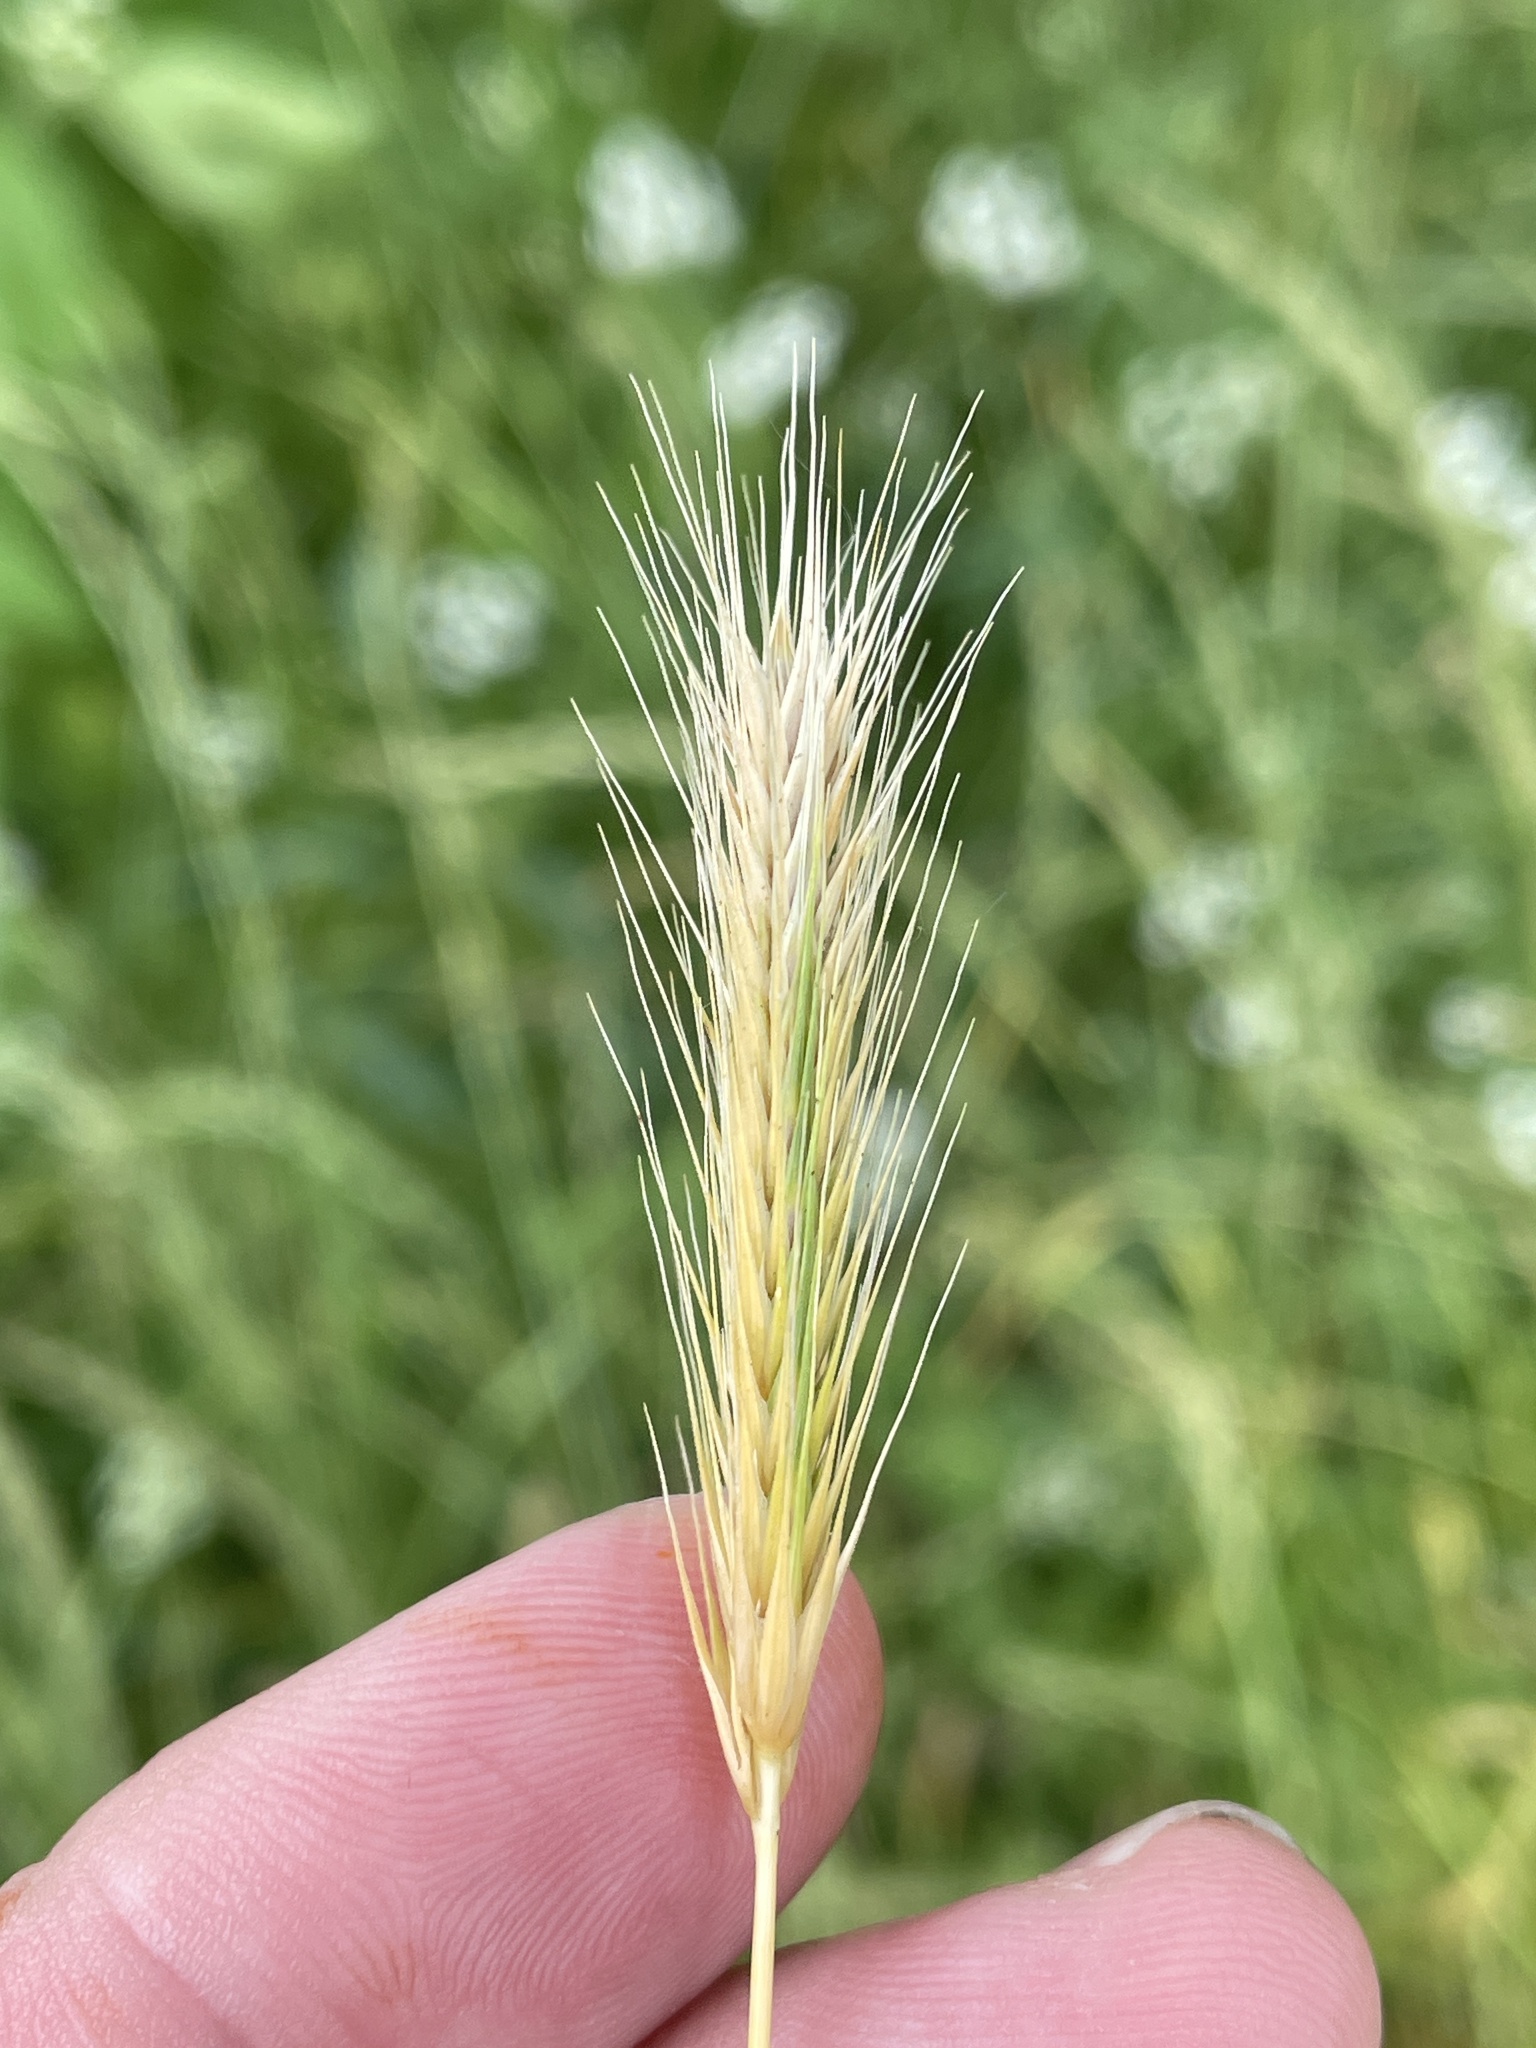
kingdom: Plantae
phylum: Tracheophyta
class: Liliopsida
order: Poales
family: Poaceae
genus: Hordeum
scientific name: Hordeum pusillum
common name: Little barley
